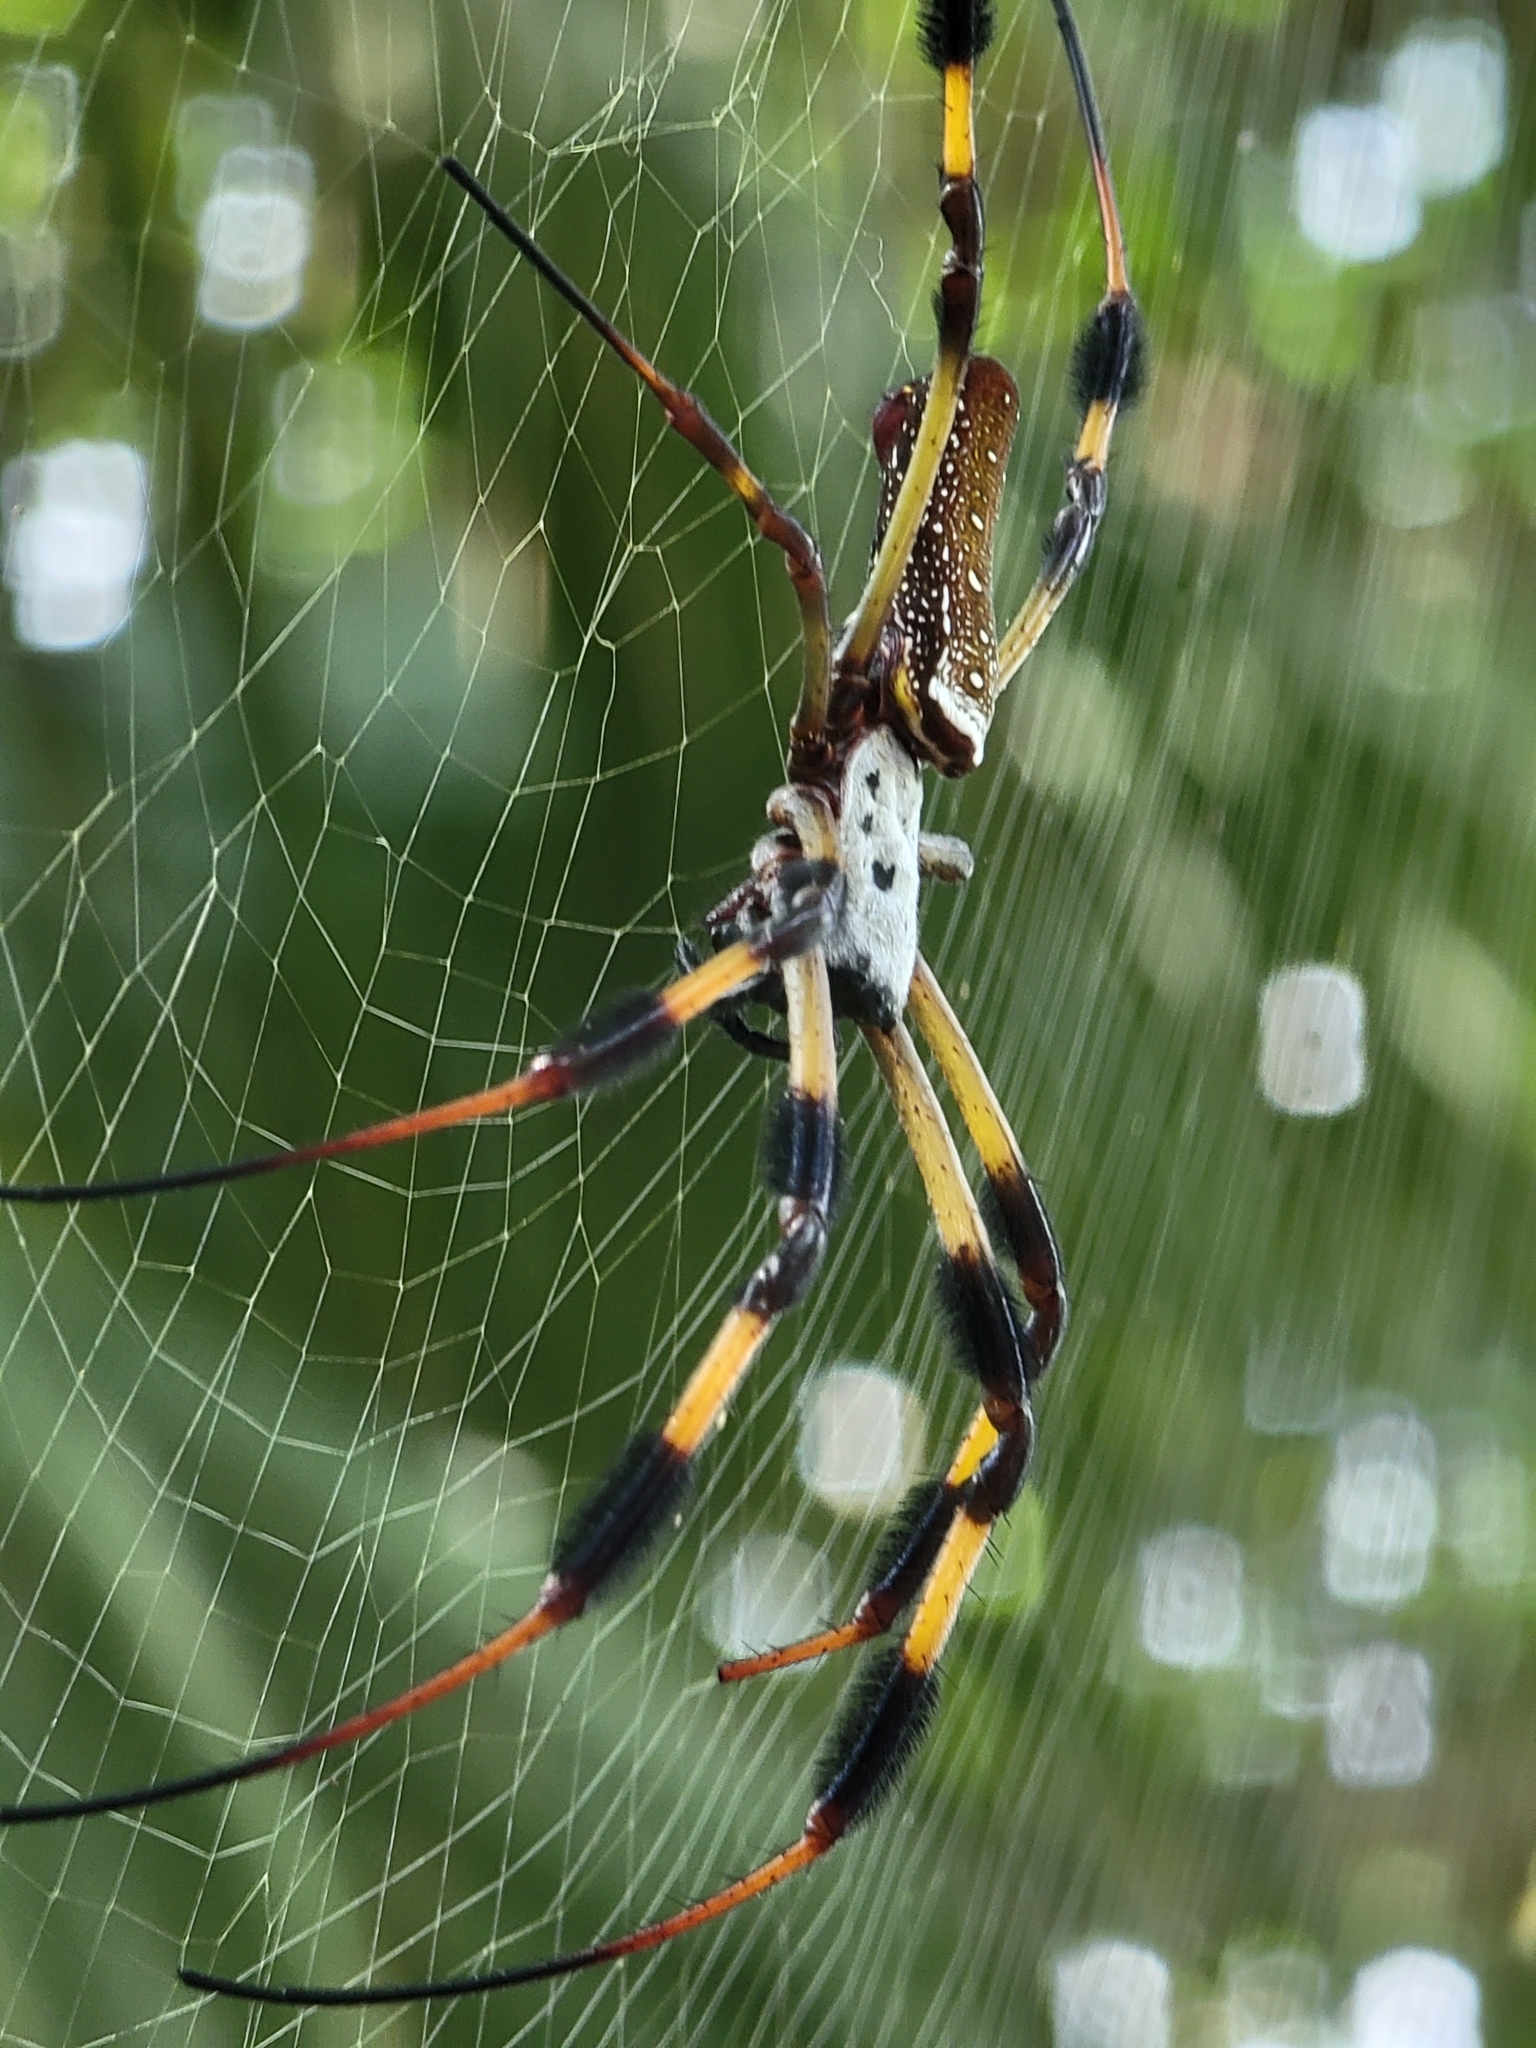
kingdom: Animalia
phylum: Arthropoda
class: Arachnida
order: Araneae
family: Araneidae
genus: Trichonephila
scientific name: Trichonephila clavipes
